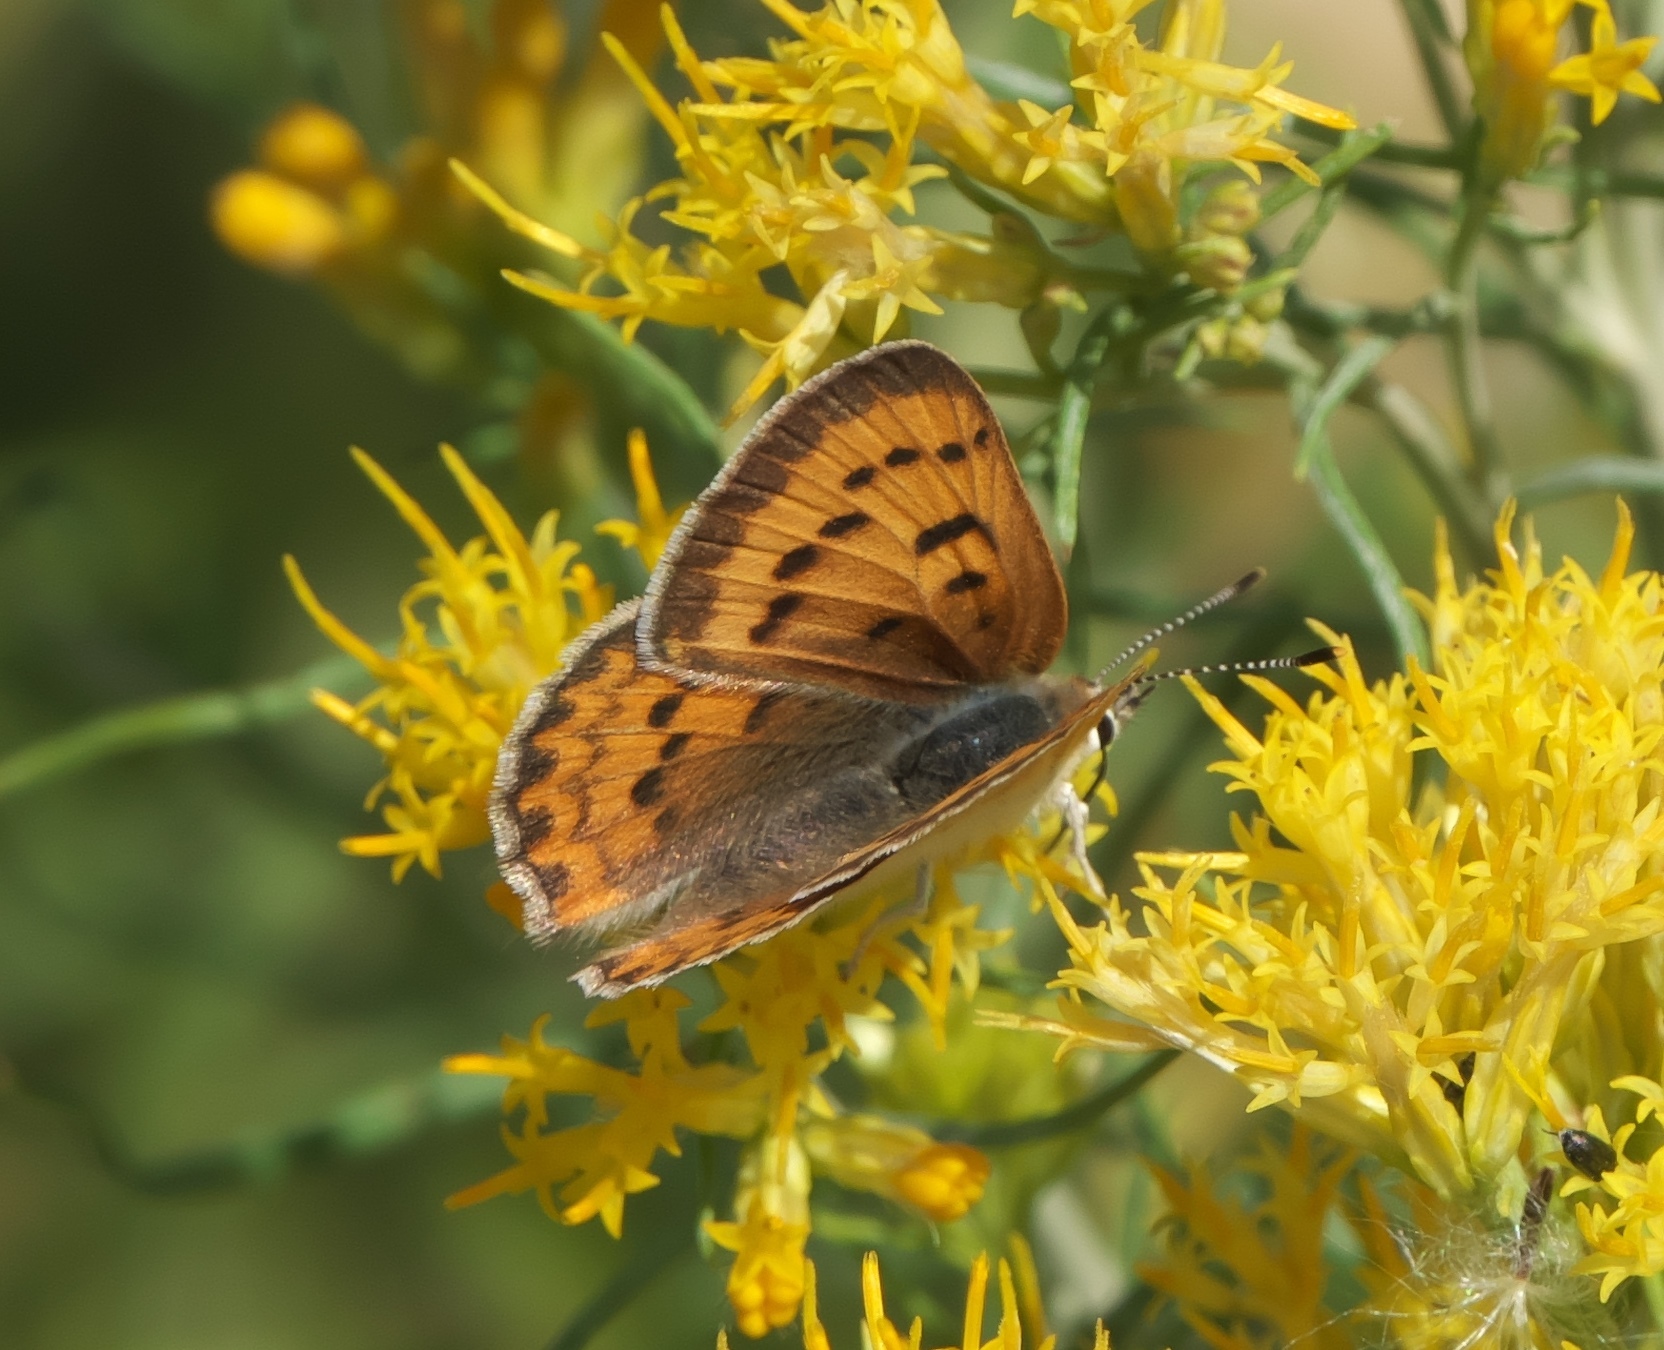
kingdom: Animalia
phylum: Arthropoda
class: Insecta
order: Lepidoptera
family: Lycaenidae
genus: Tharsalea
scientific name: Tharsalea helloides
